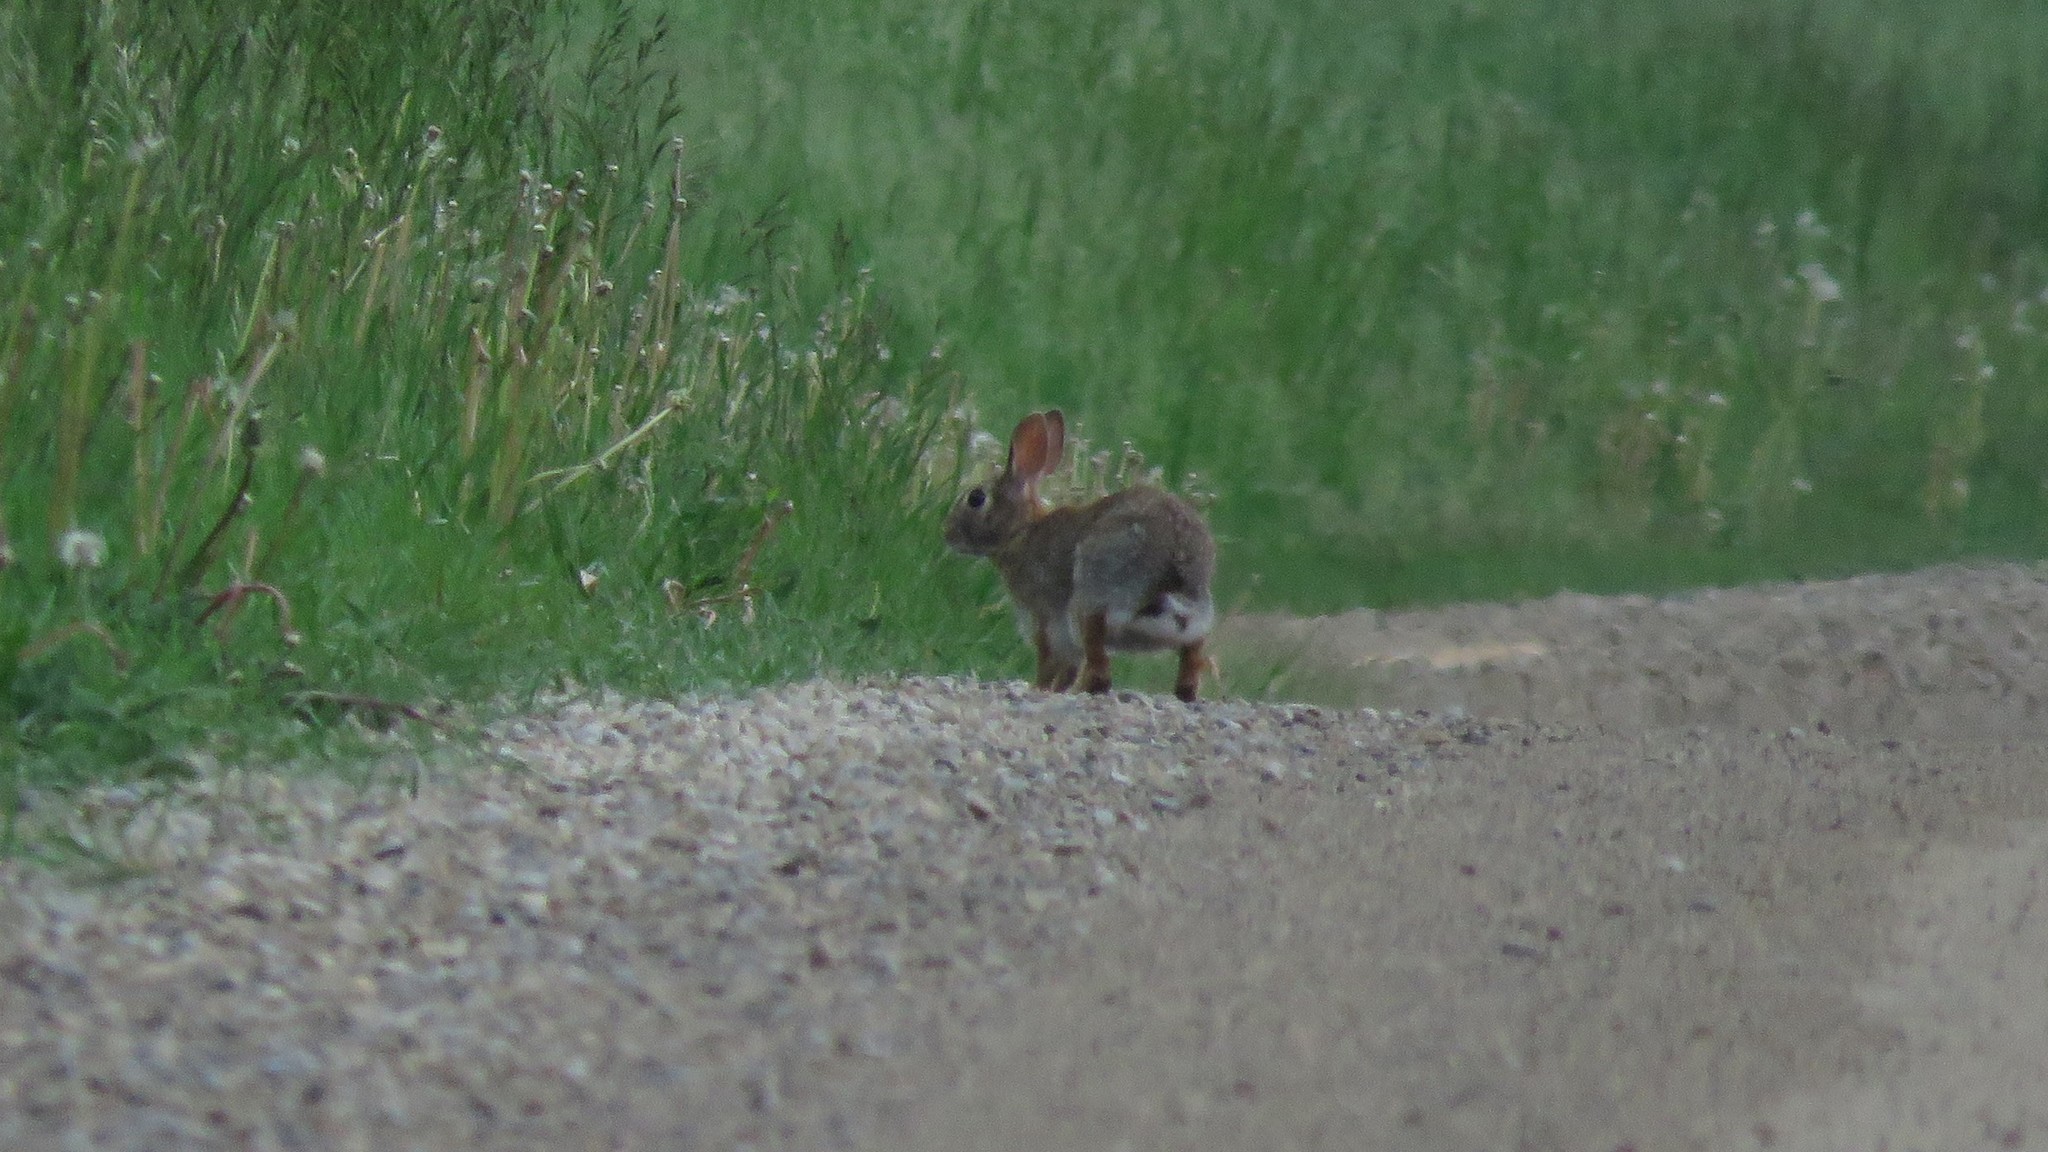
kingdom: Animalia
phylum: Chordata
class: Mammalia
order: Lagomorpha
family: Leporidae
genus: Sylvilagus
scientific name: Sylvilagus floridanus
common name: Eastern cottontail
